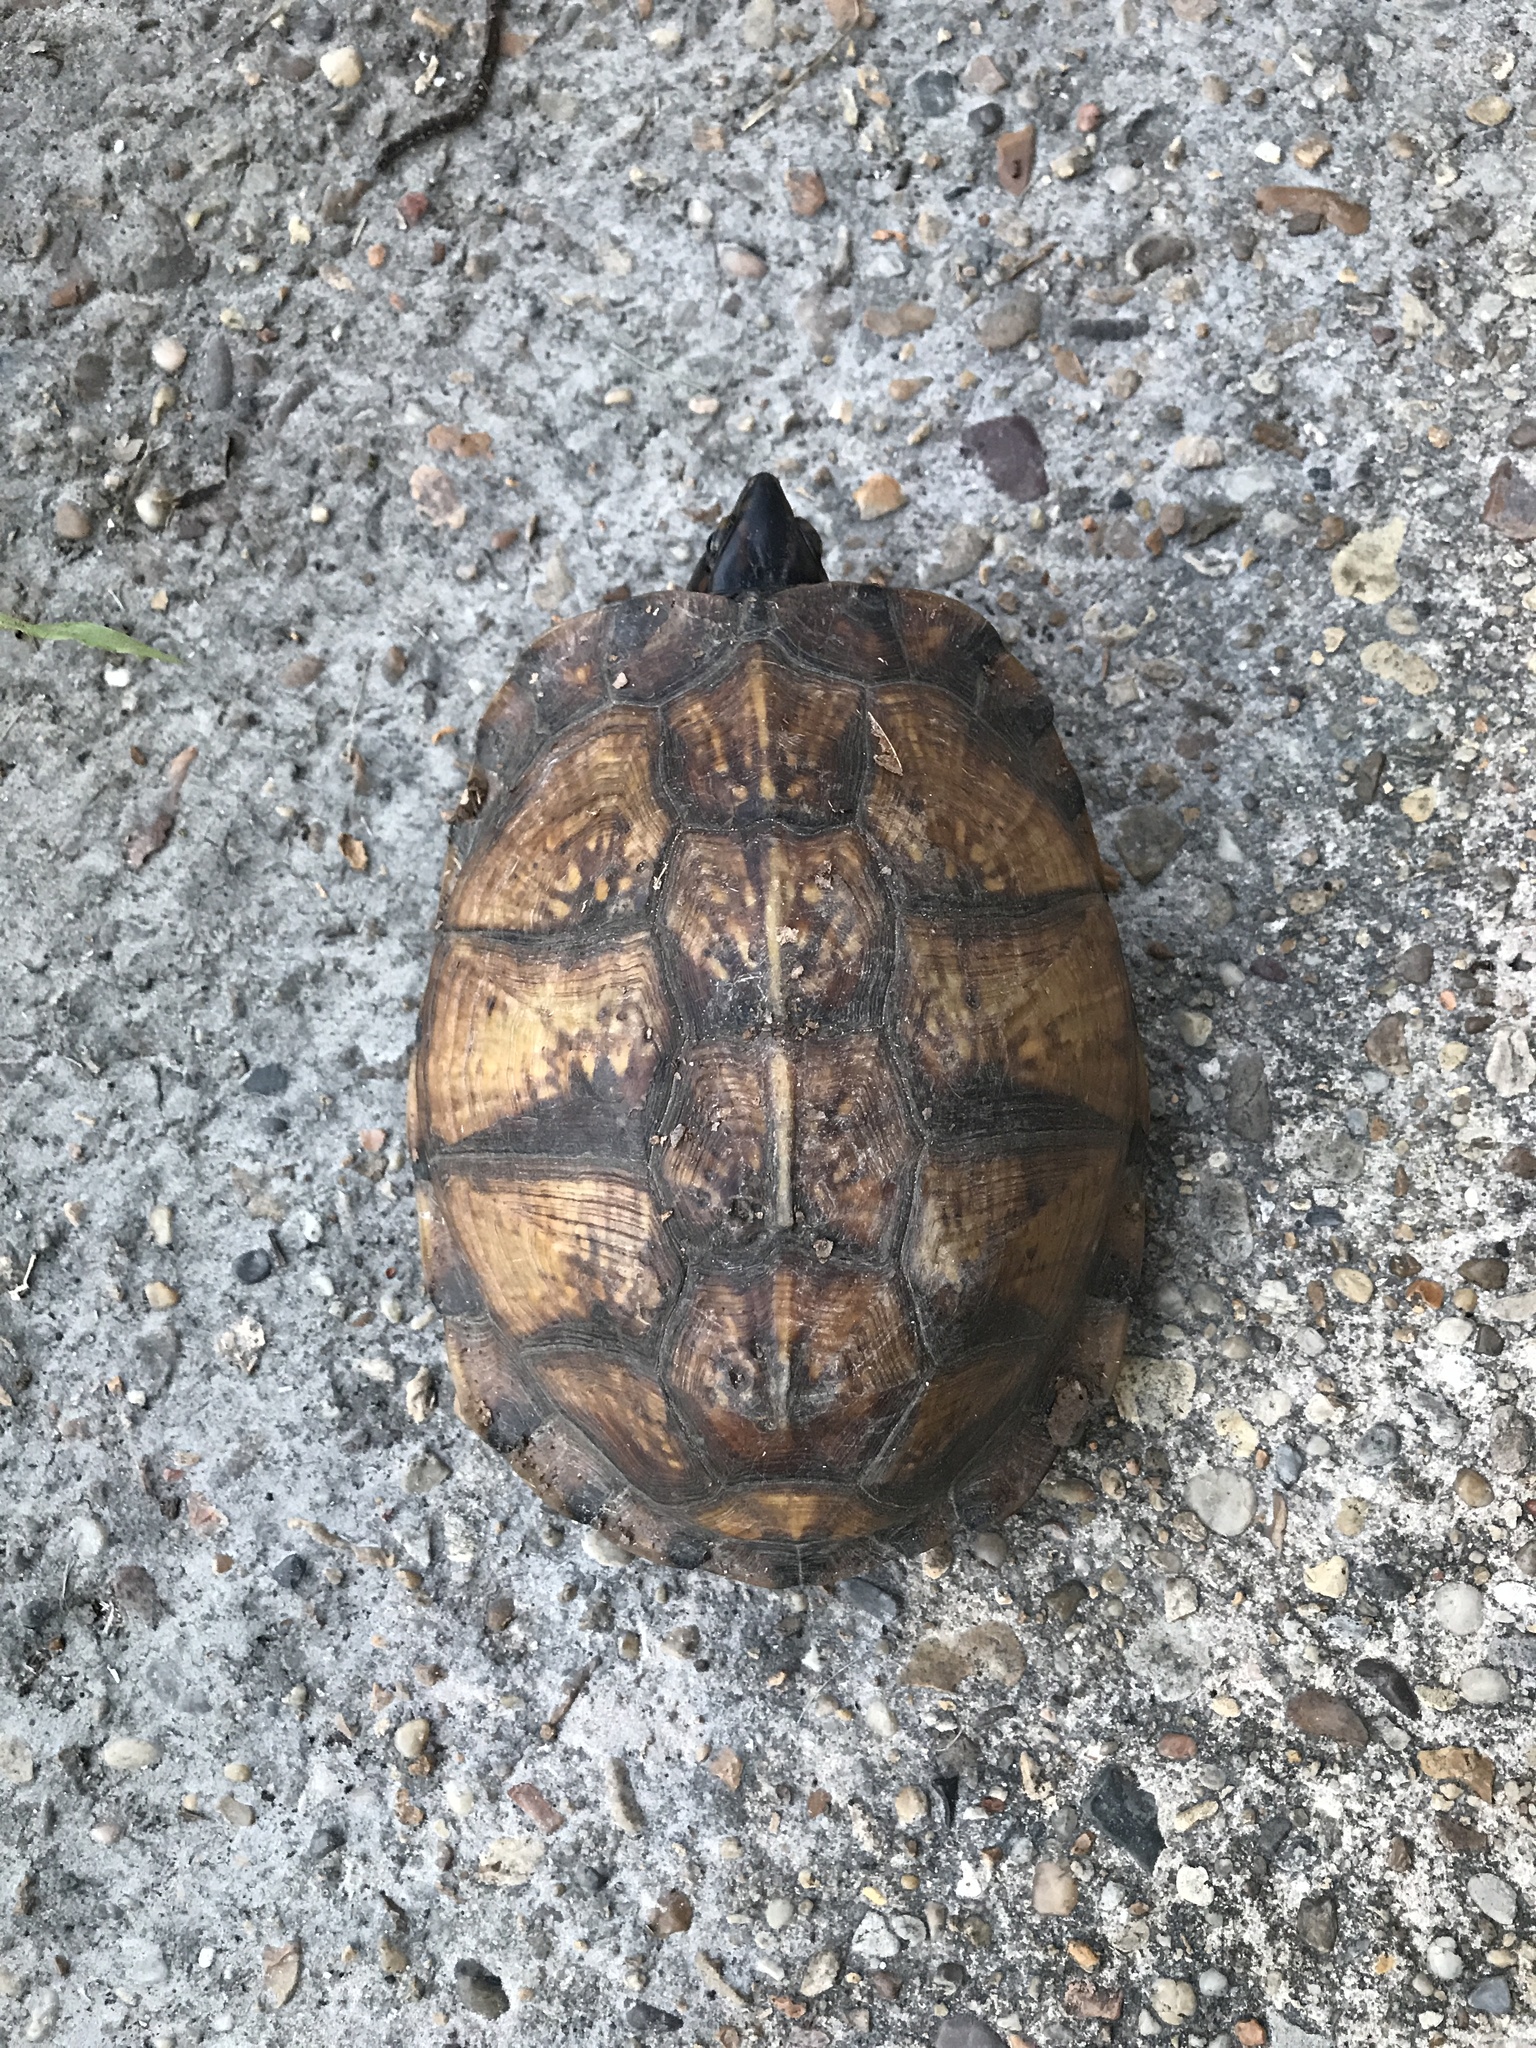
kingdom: Animalia
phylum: Chordata
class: Testudines
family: Emydidae
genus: Terrapene
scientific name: Terrapene carolina
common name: Common box turtle
